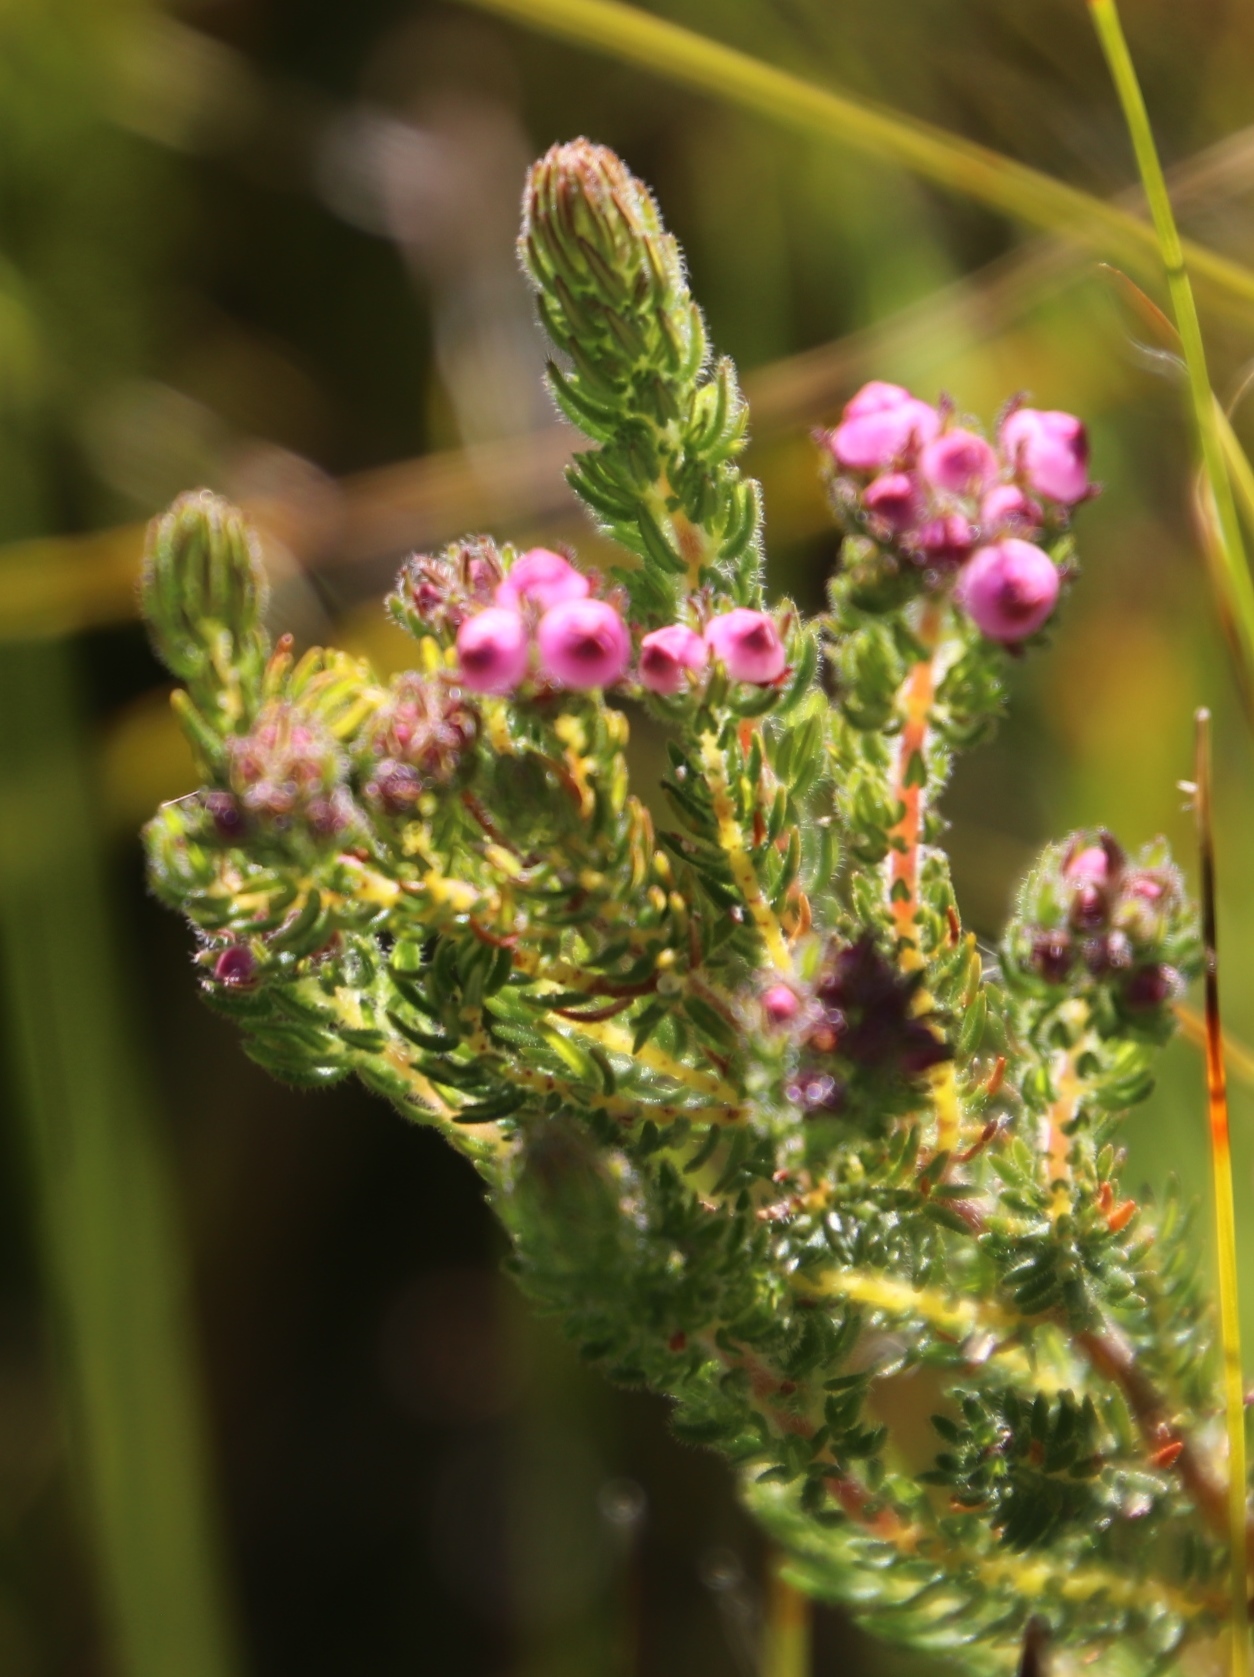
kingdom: Plantae
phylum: Tracheophyta
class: Magnoliopsida
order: Ericales
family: Ericaceae
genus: Erica
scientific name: Erica bergiana
